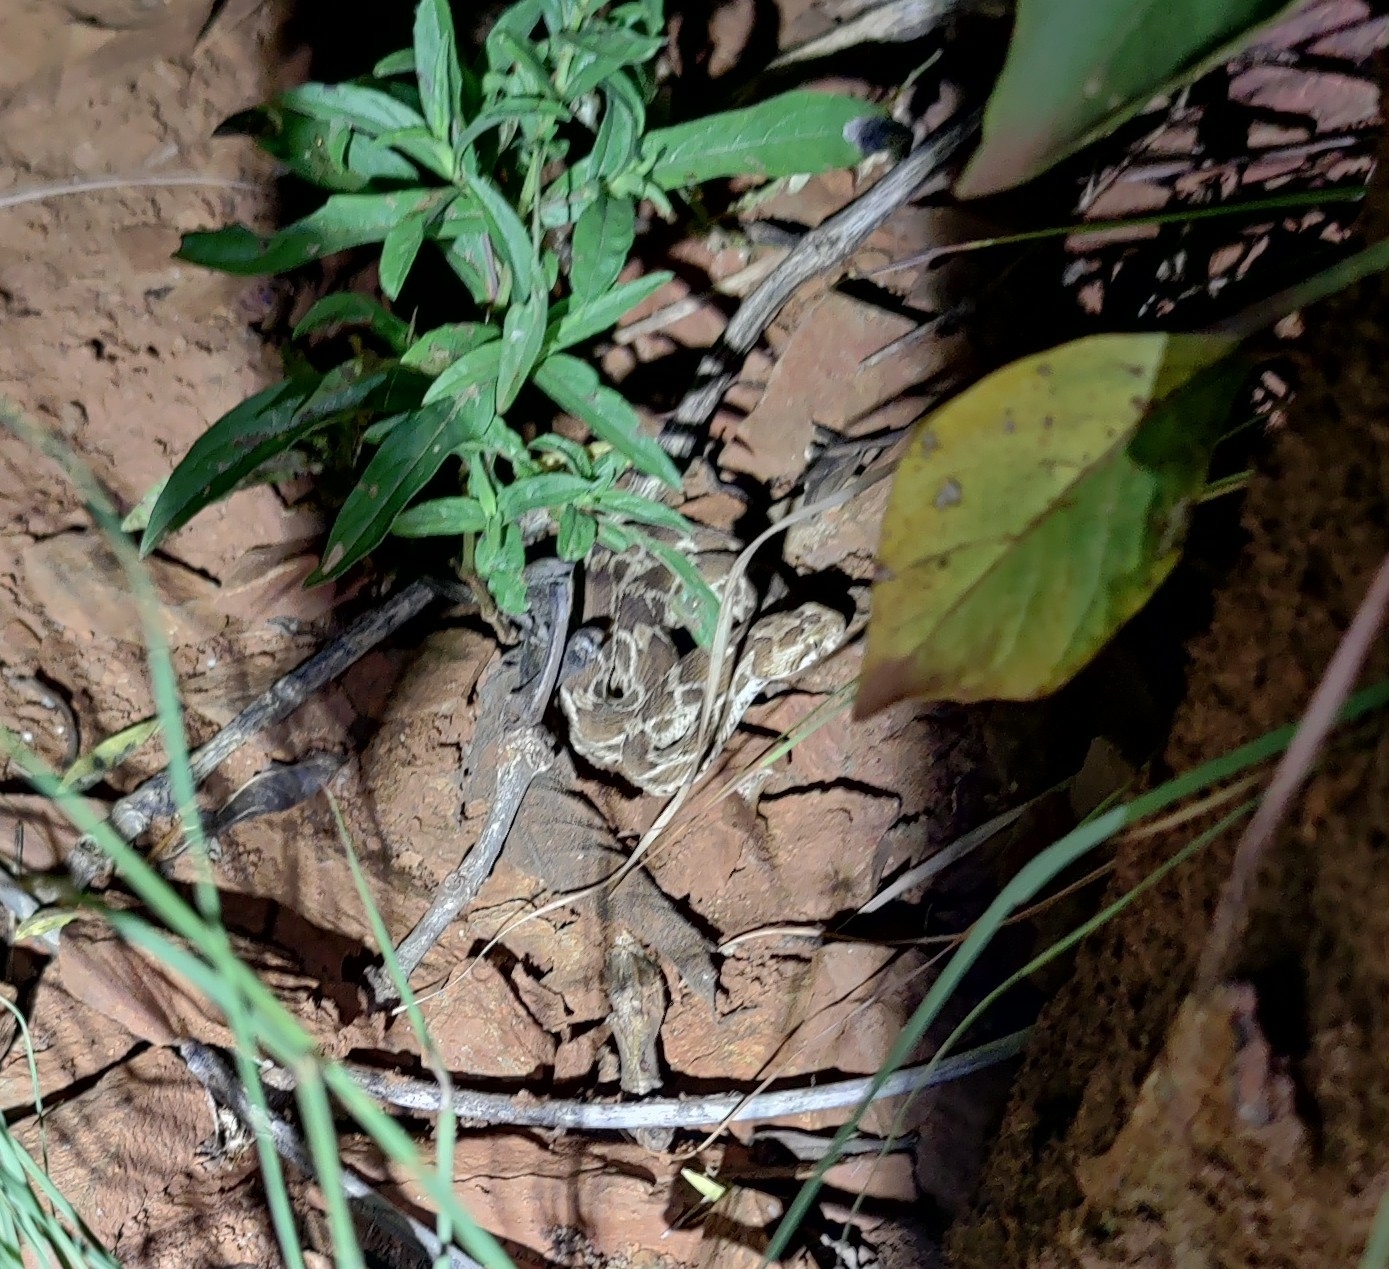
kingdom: Animalia
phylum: Chordata
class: Squamata
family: Viperidae
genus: Echis
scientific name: Echis carinatus
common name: Saw-scaled viper
